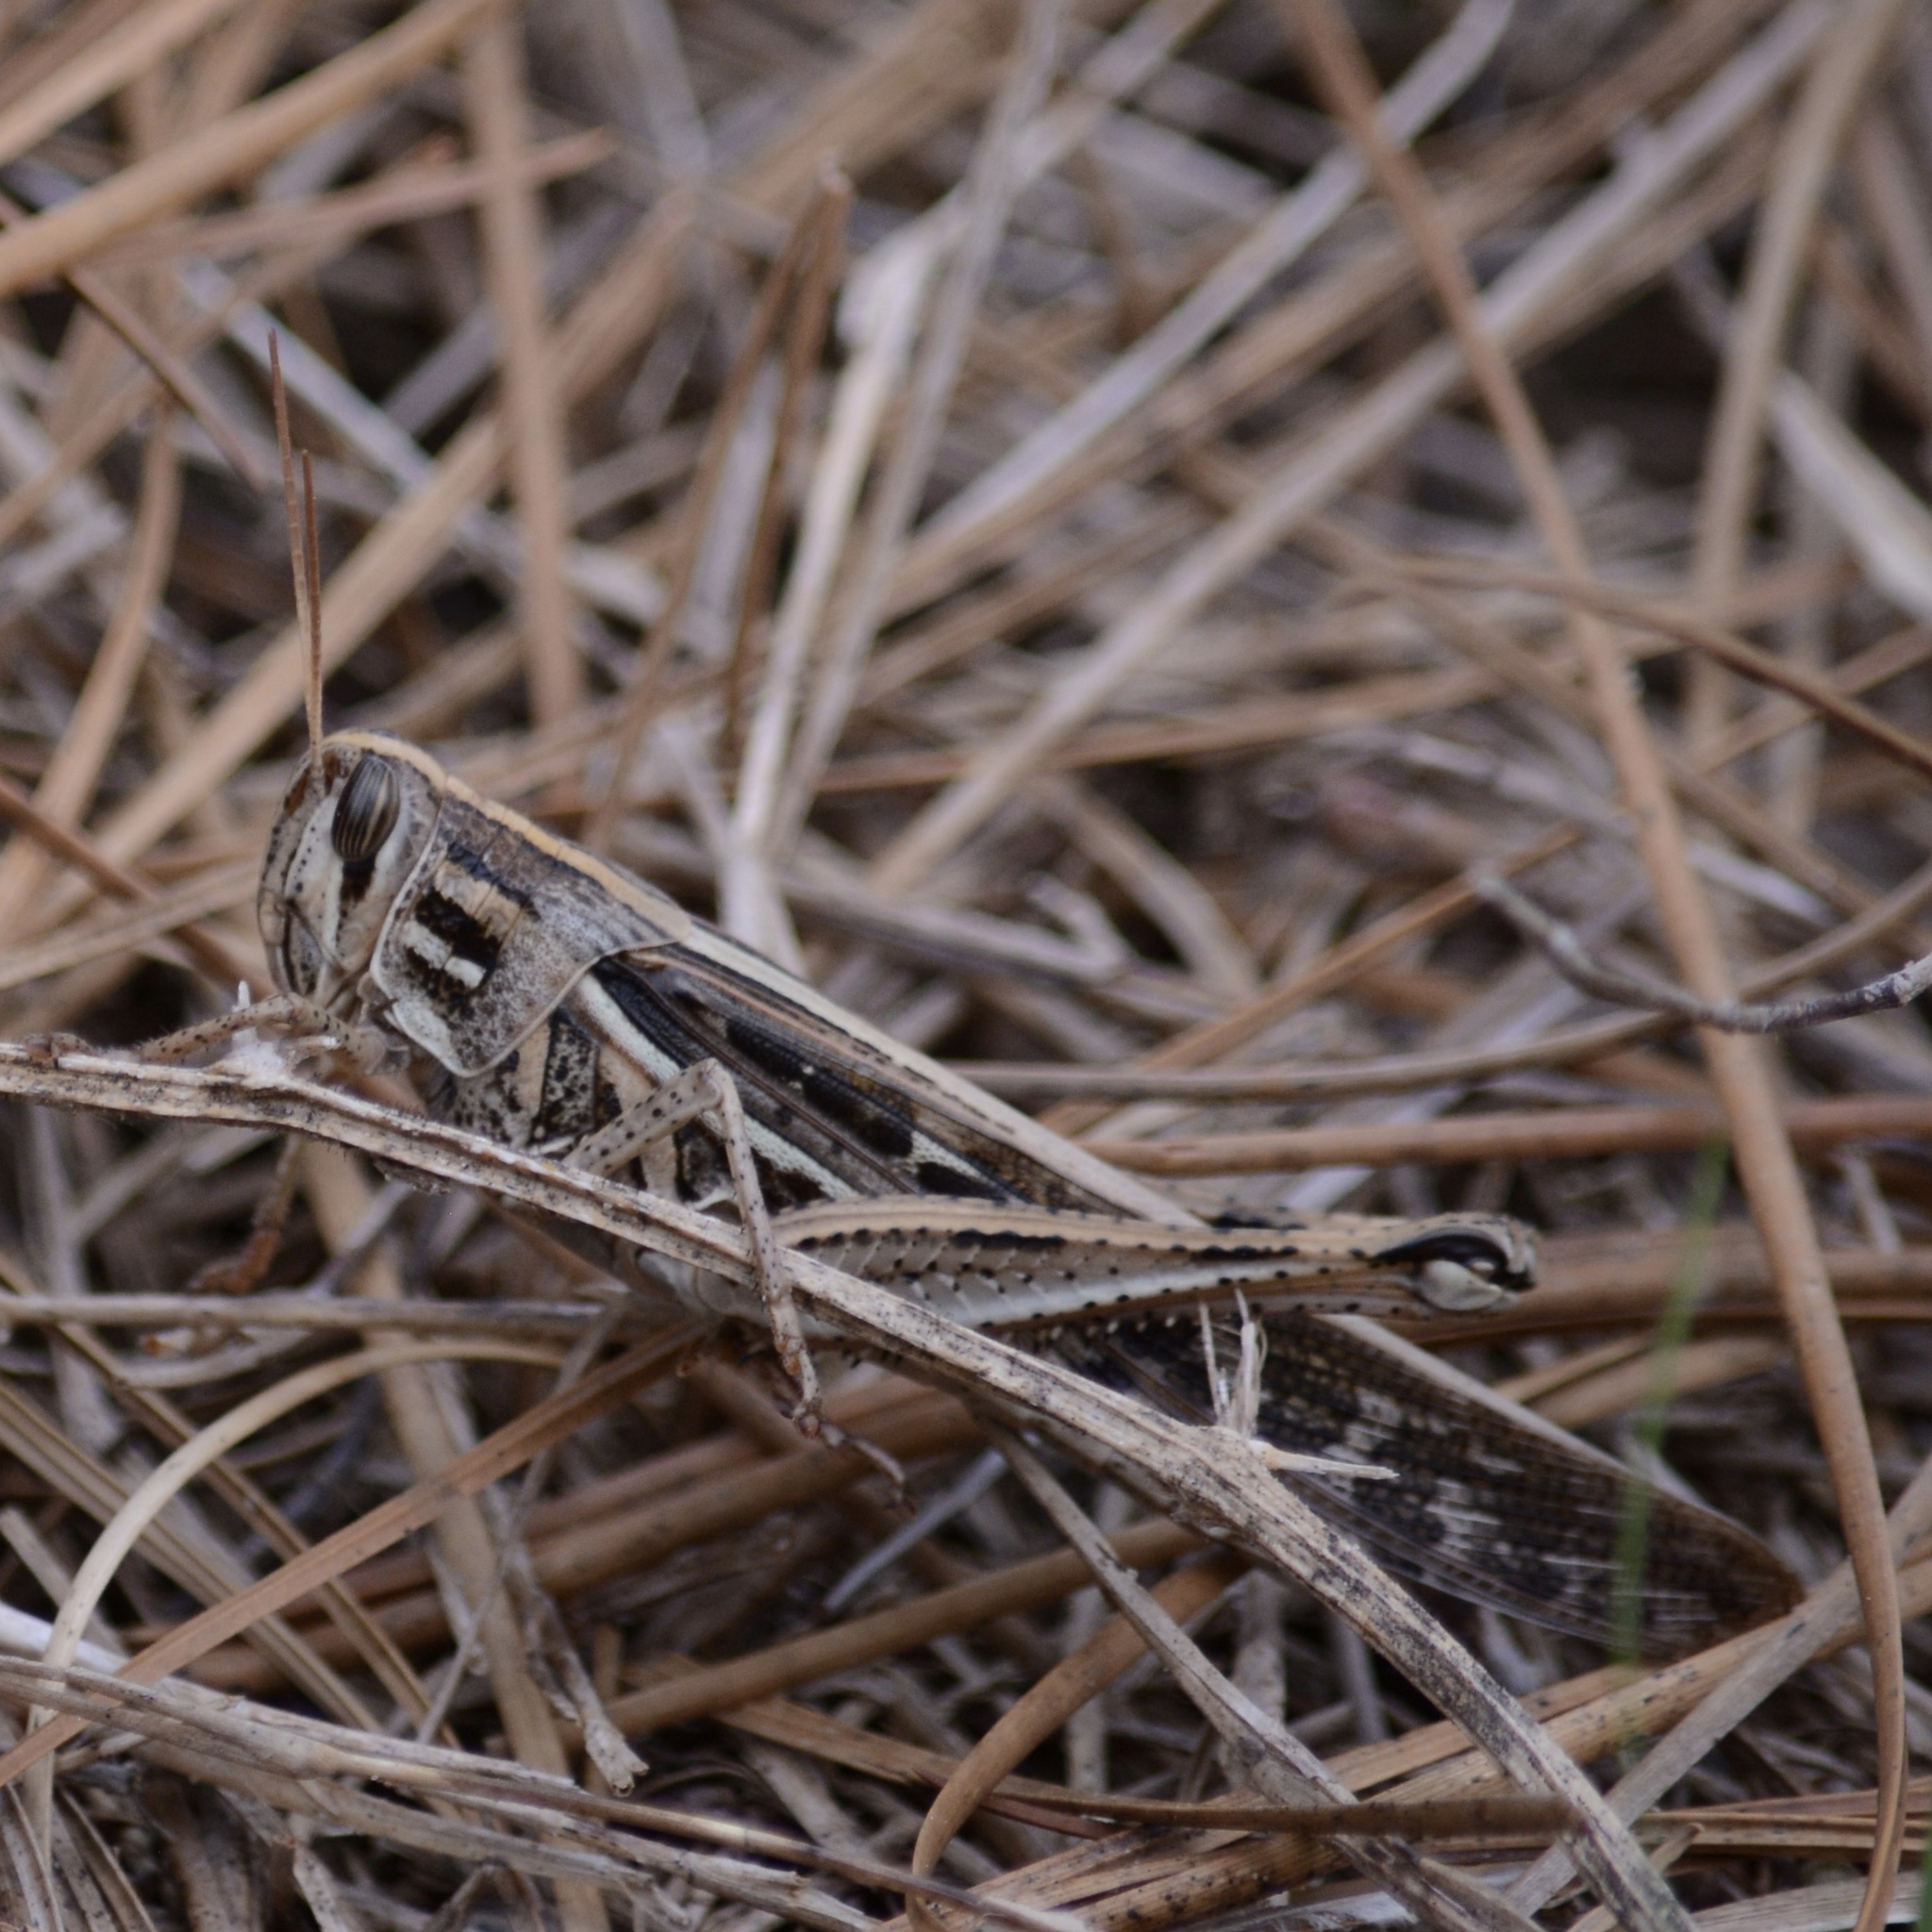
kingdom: Animalia
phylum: Arthropoda
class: Insecta
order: Orthoptera
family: Acrididae
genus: Schistocerca
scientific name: Schistocerca americana
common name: American bird locust
